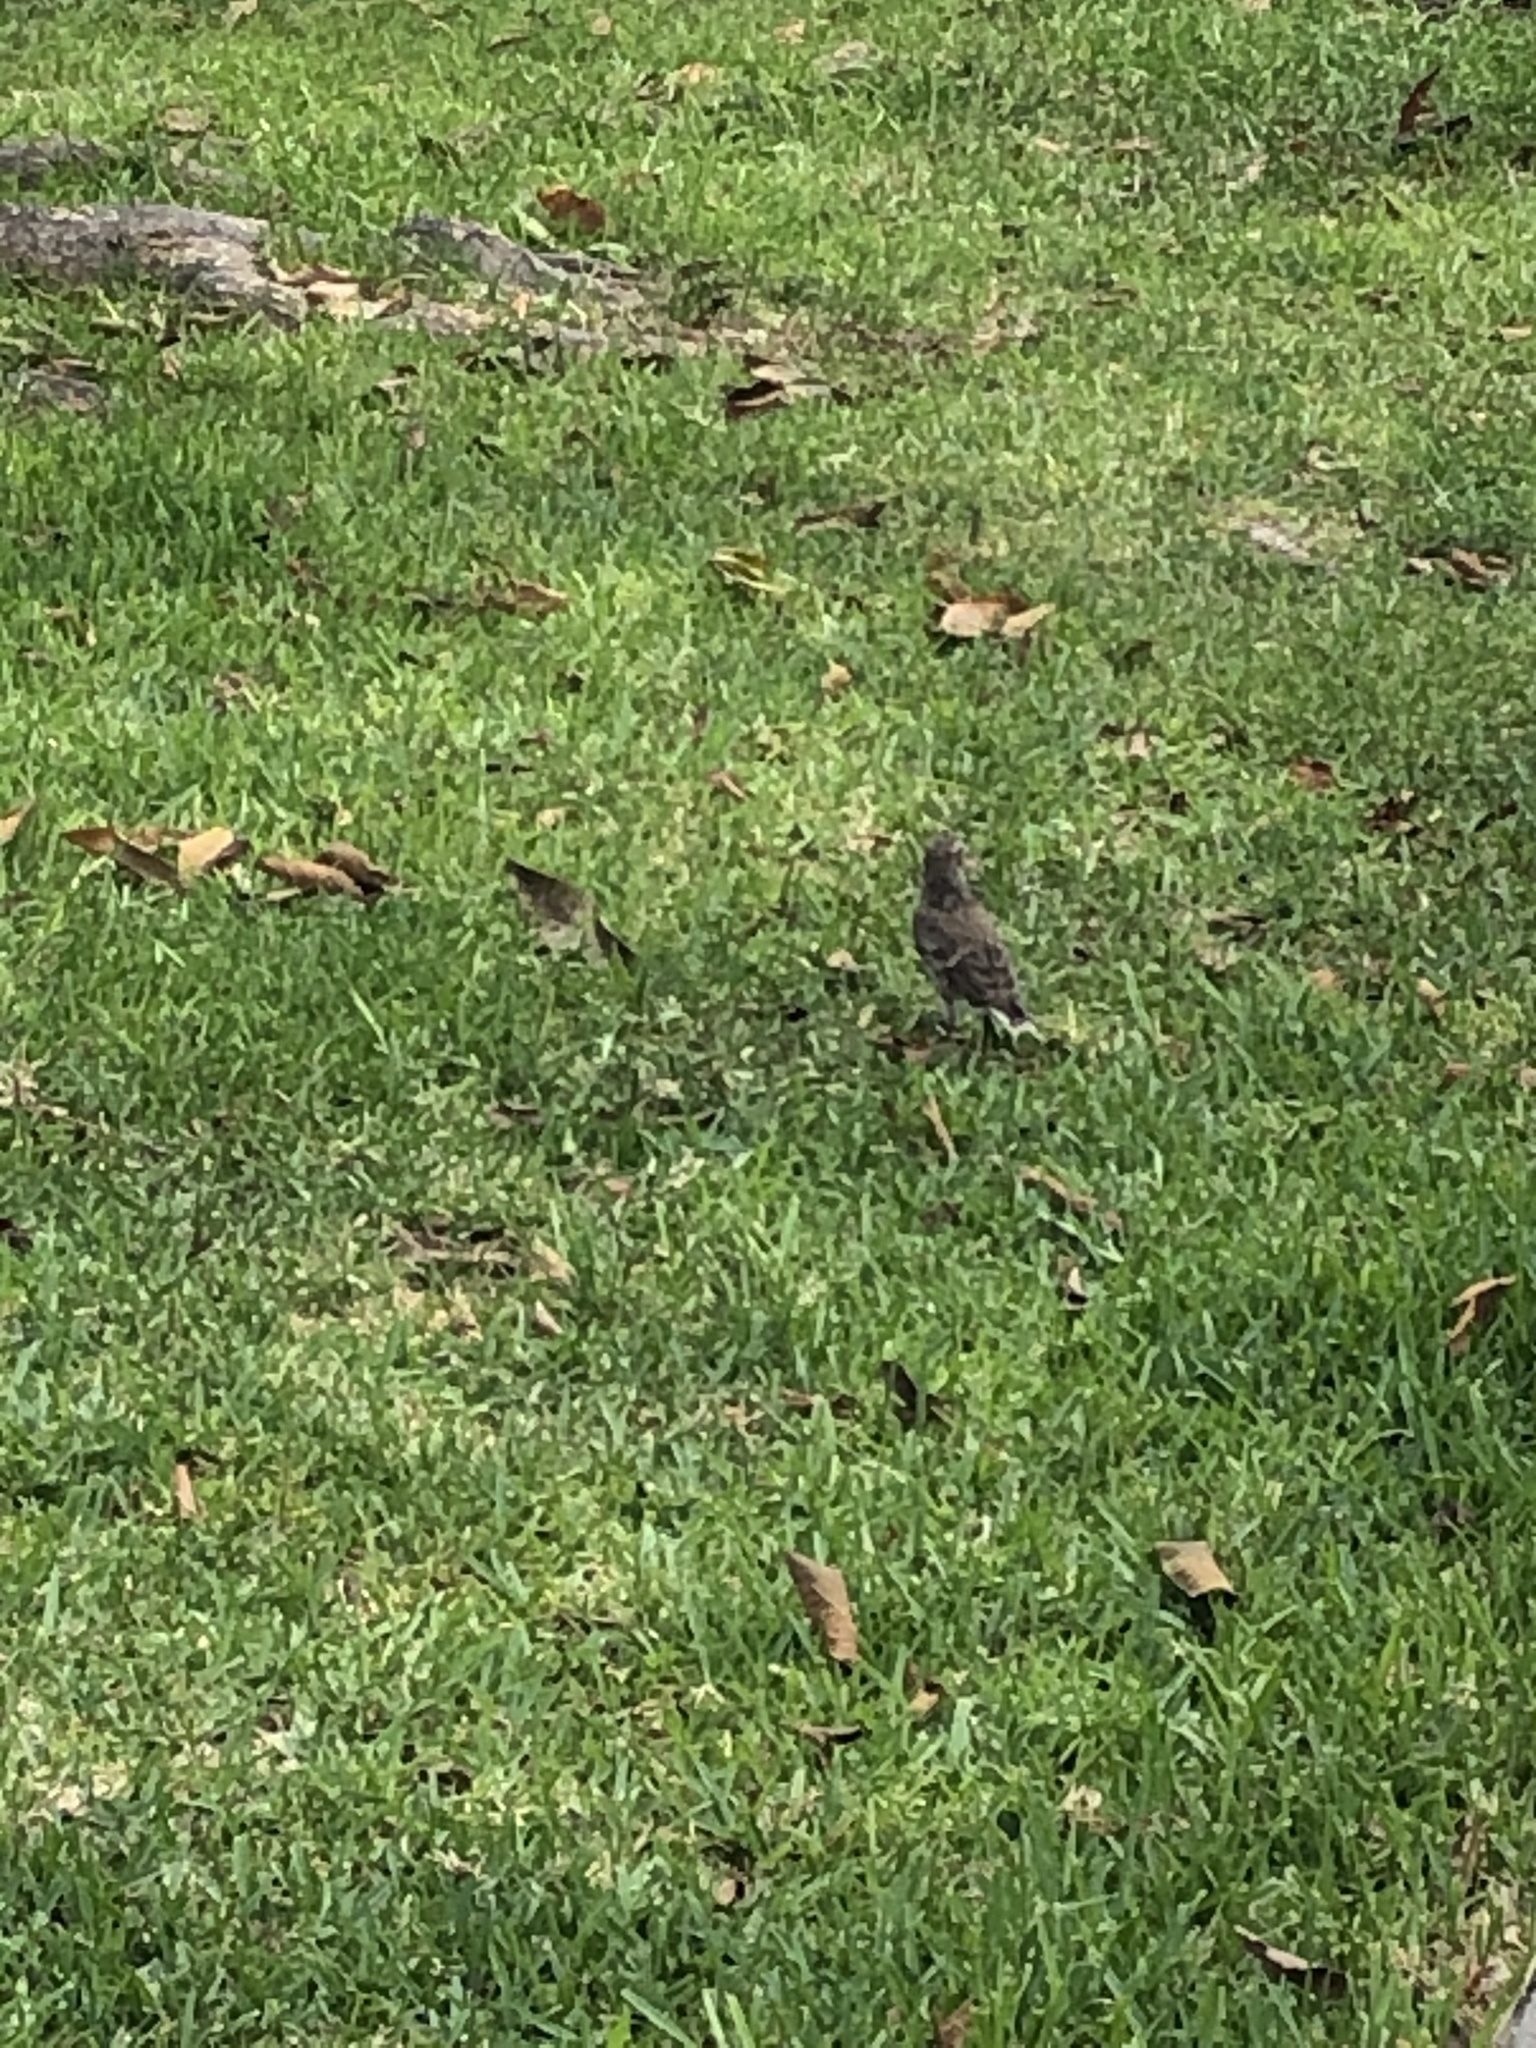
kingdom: Animalia
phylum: Chordata
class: Aves
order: Passeriformes
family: Mimidae
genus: Mimus
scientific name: Mimus longicaudatus
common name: Long-tailed mockingbird
